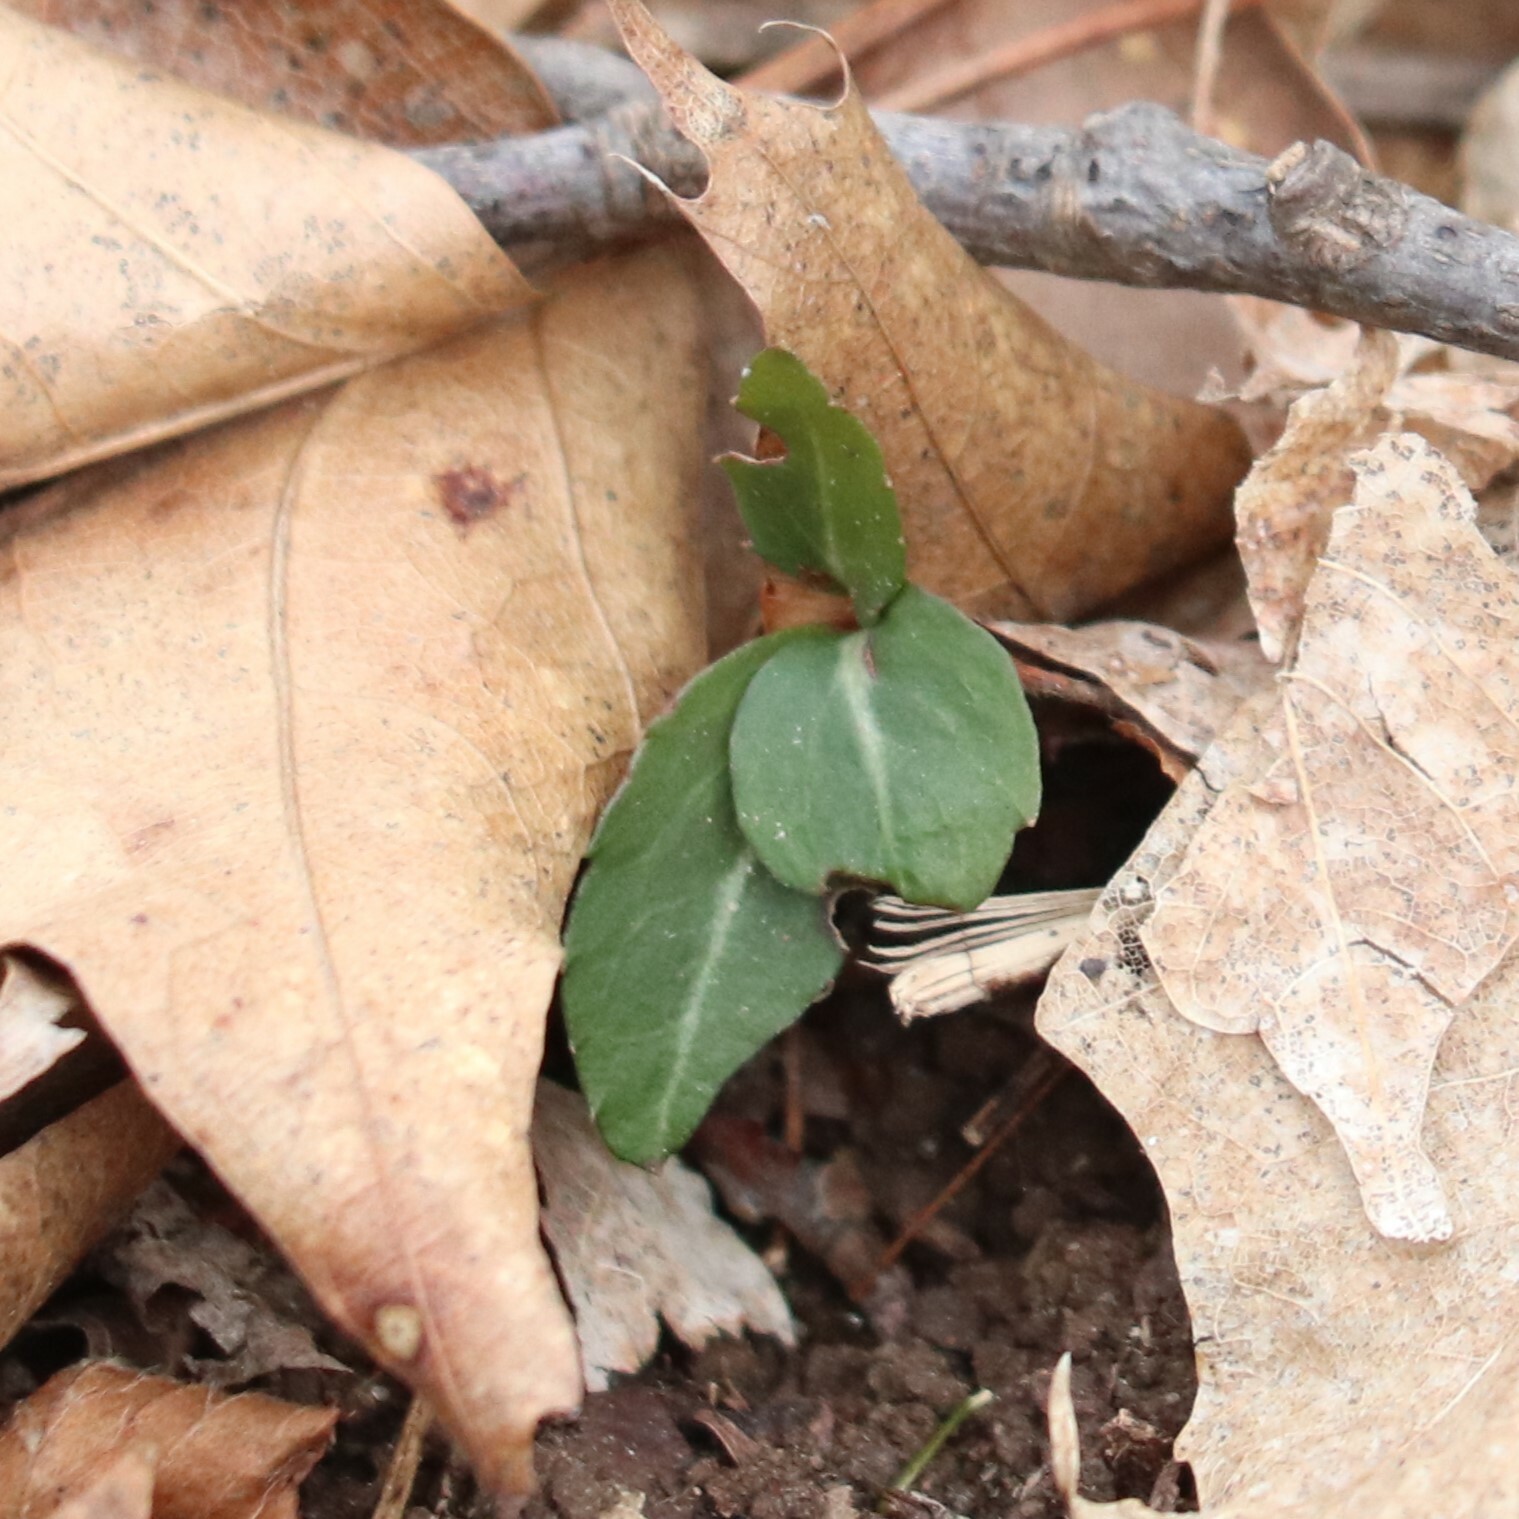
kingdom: Plantae
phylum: Tracheophyta
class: Magnoliopsida
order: Ericales
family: Ericaceae
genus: Chimaphila
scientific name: Chimaphila maculata
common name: Spotted pipsissewa
